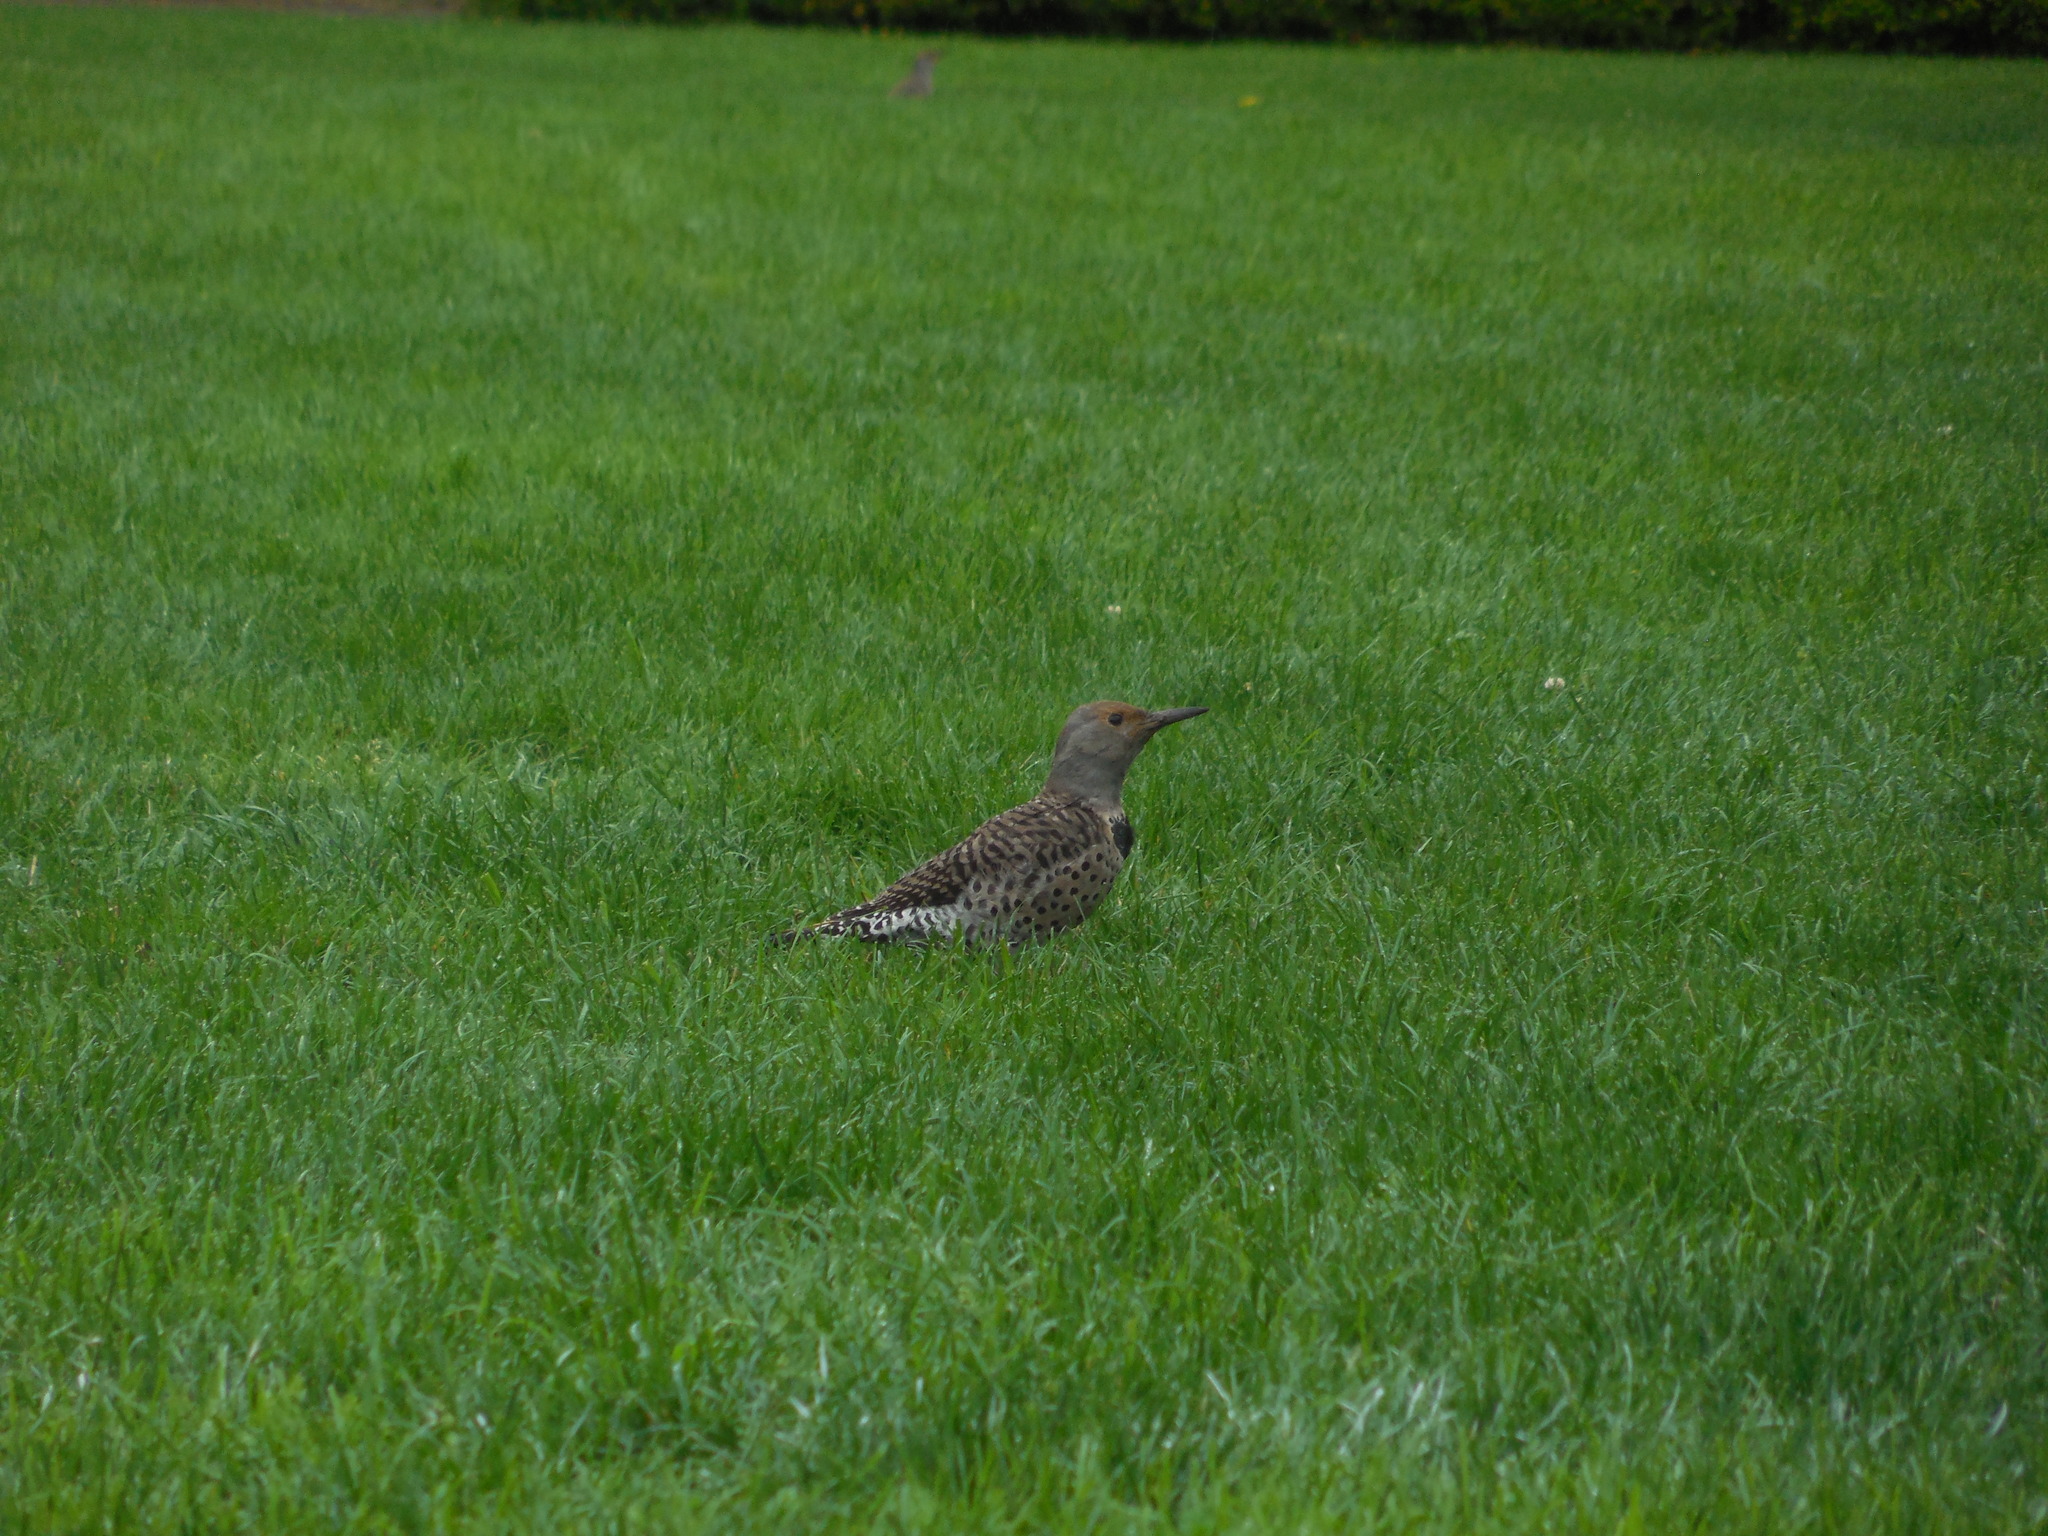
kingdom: Animalia
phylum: Chordata
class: Aves
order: Piciformes
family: Picidae
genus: Colaptes
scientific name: Colaptes auratus
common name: Northern flicker
